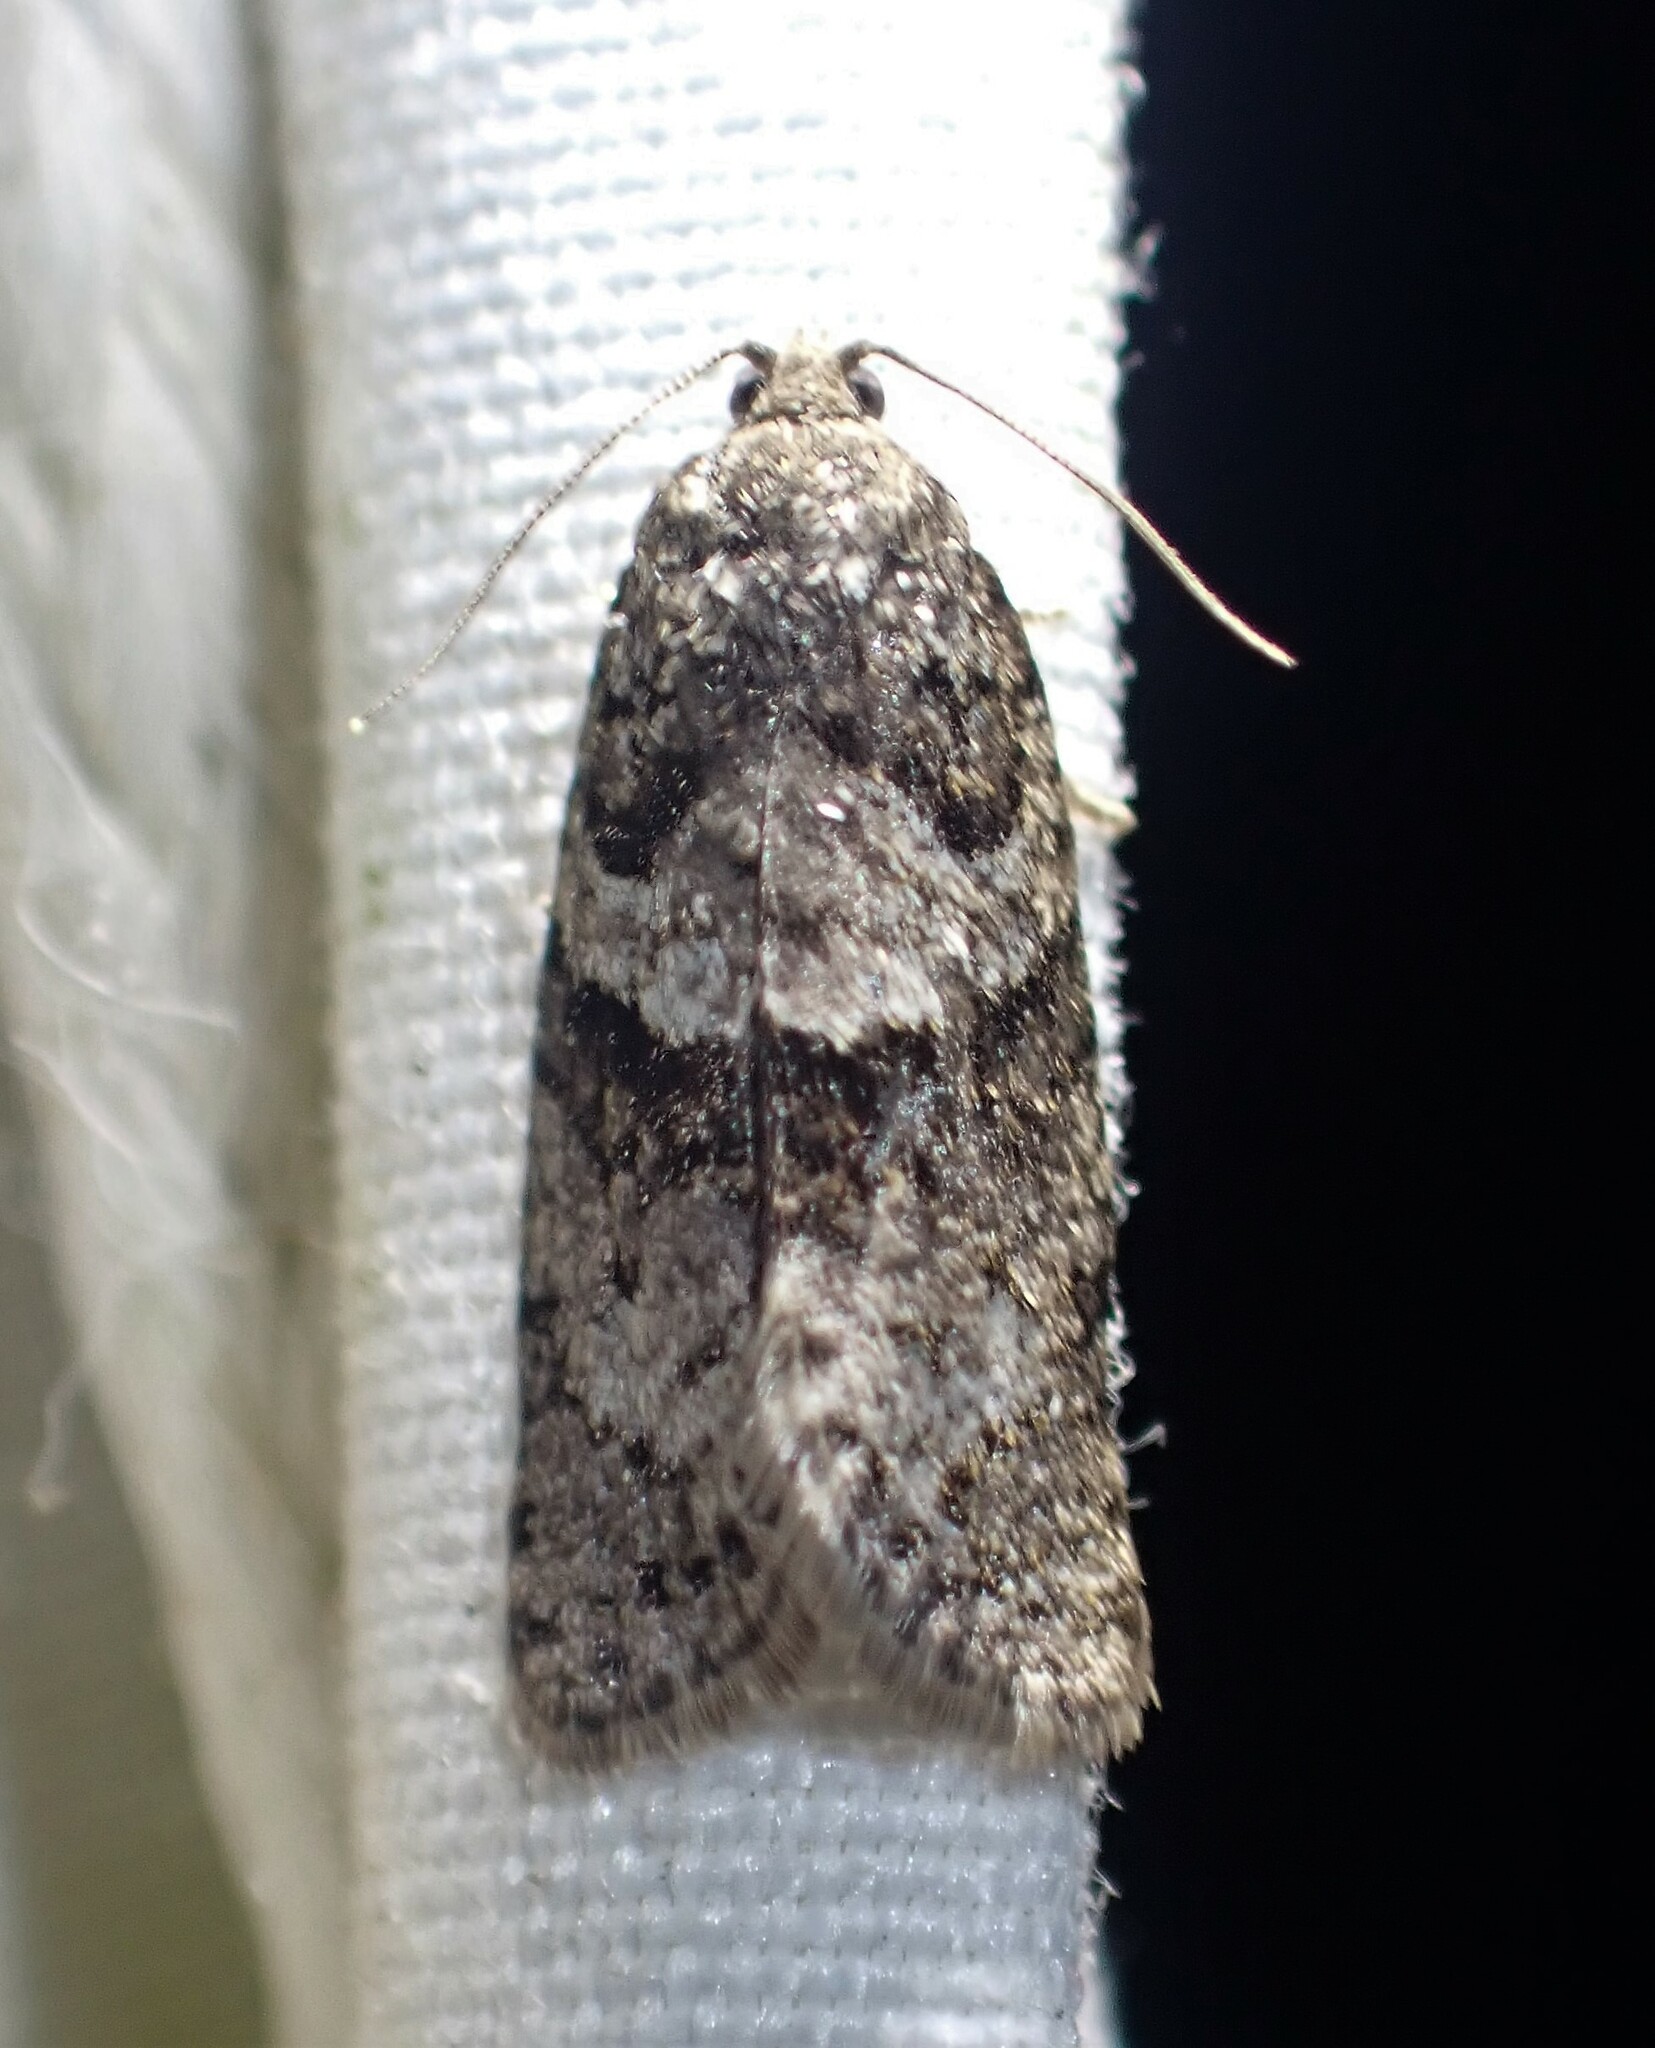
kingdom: Animalia
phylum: Arthropoda
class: Insecta
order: Lepidoptera
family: Tortricidae
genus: Syndemis
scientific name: Syndemis afflictana
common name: Gray leafroller moth
